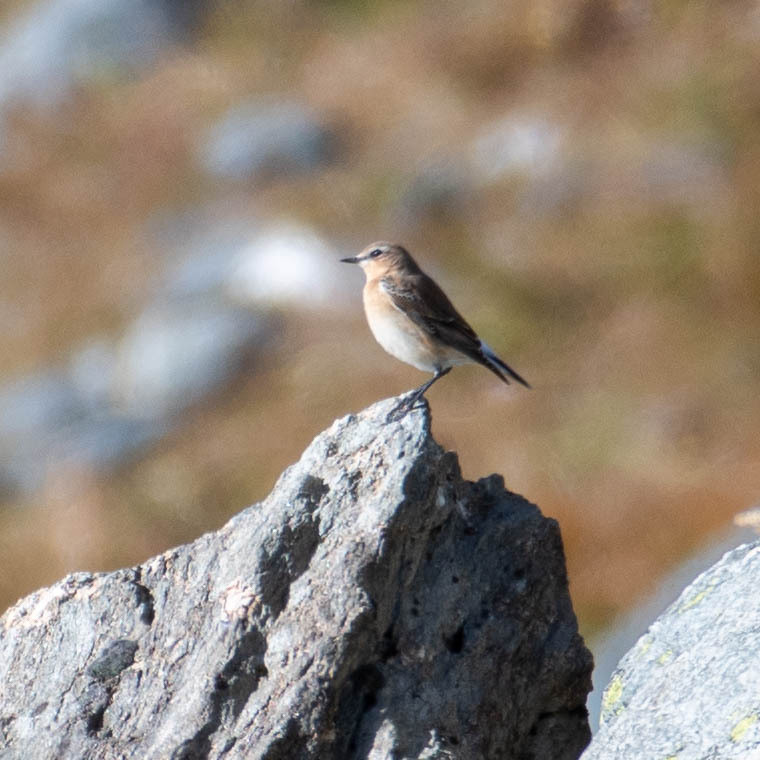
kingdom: Animalia
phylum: Chordata
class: Aves
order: Passeriformes
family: Muscicapidae
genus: Oenanthe
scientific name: Oenanthe oenanthe
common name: Northern wheatear
